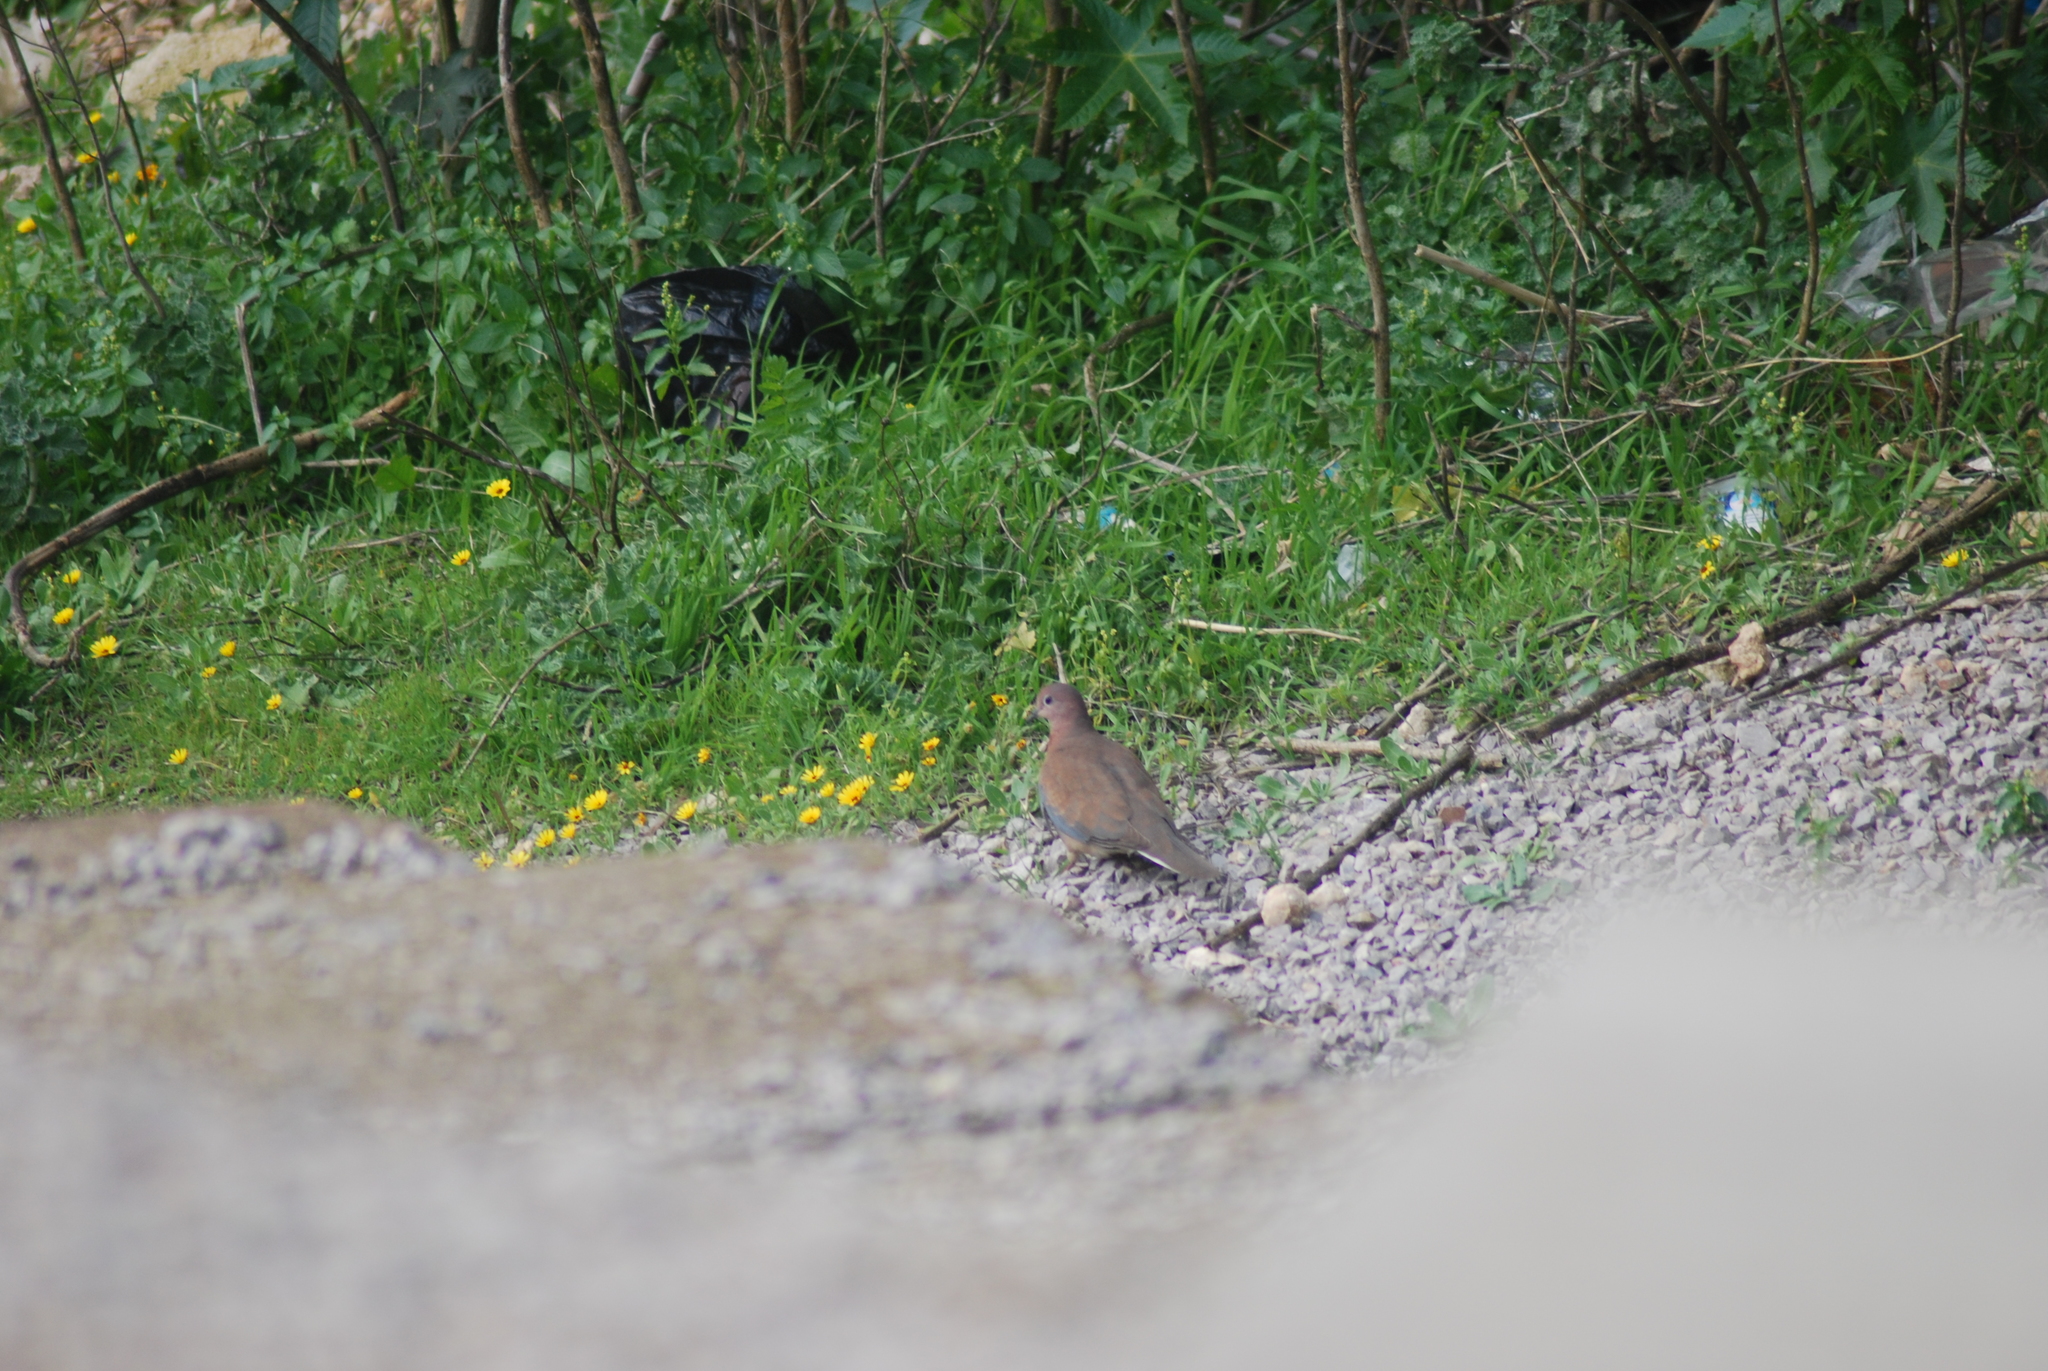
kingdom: Animalia
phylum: Chordata
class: Aves
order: Columbiformes
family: Columbidae
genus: Spilopelia
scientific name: Spilopelia senegalensis
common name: Laughing dove
